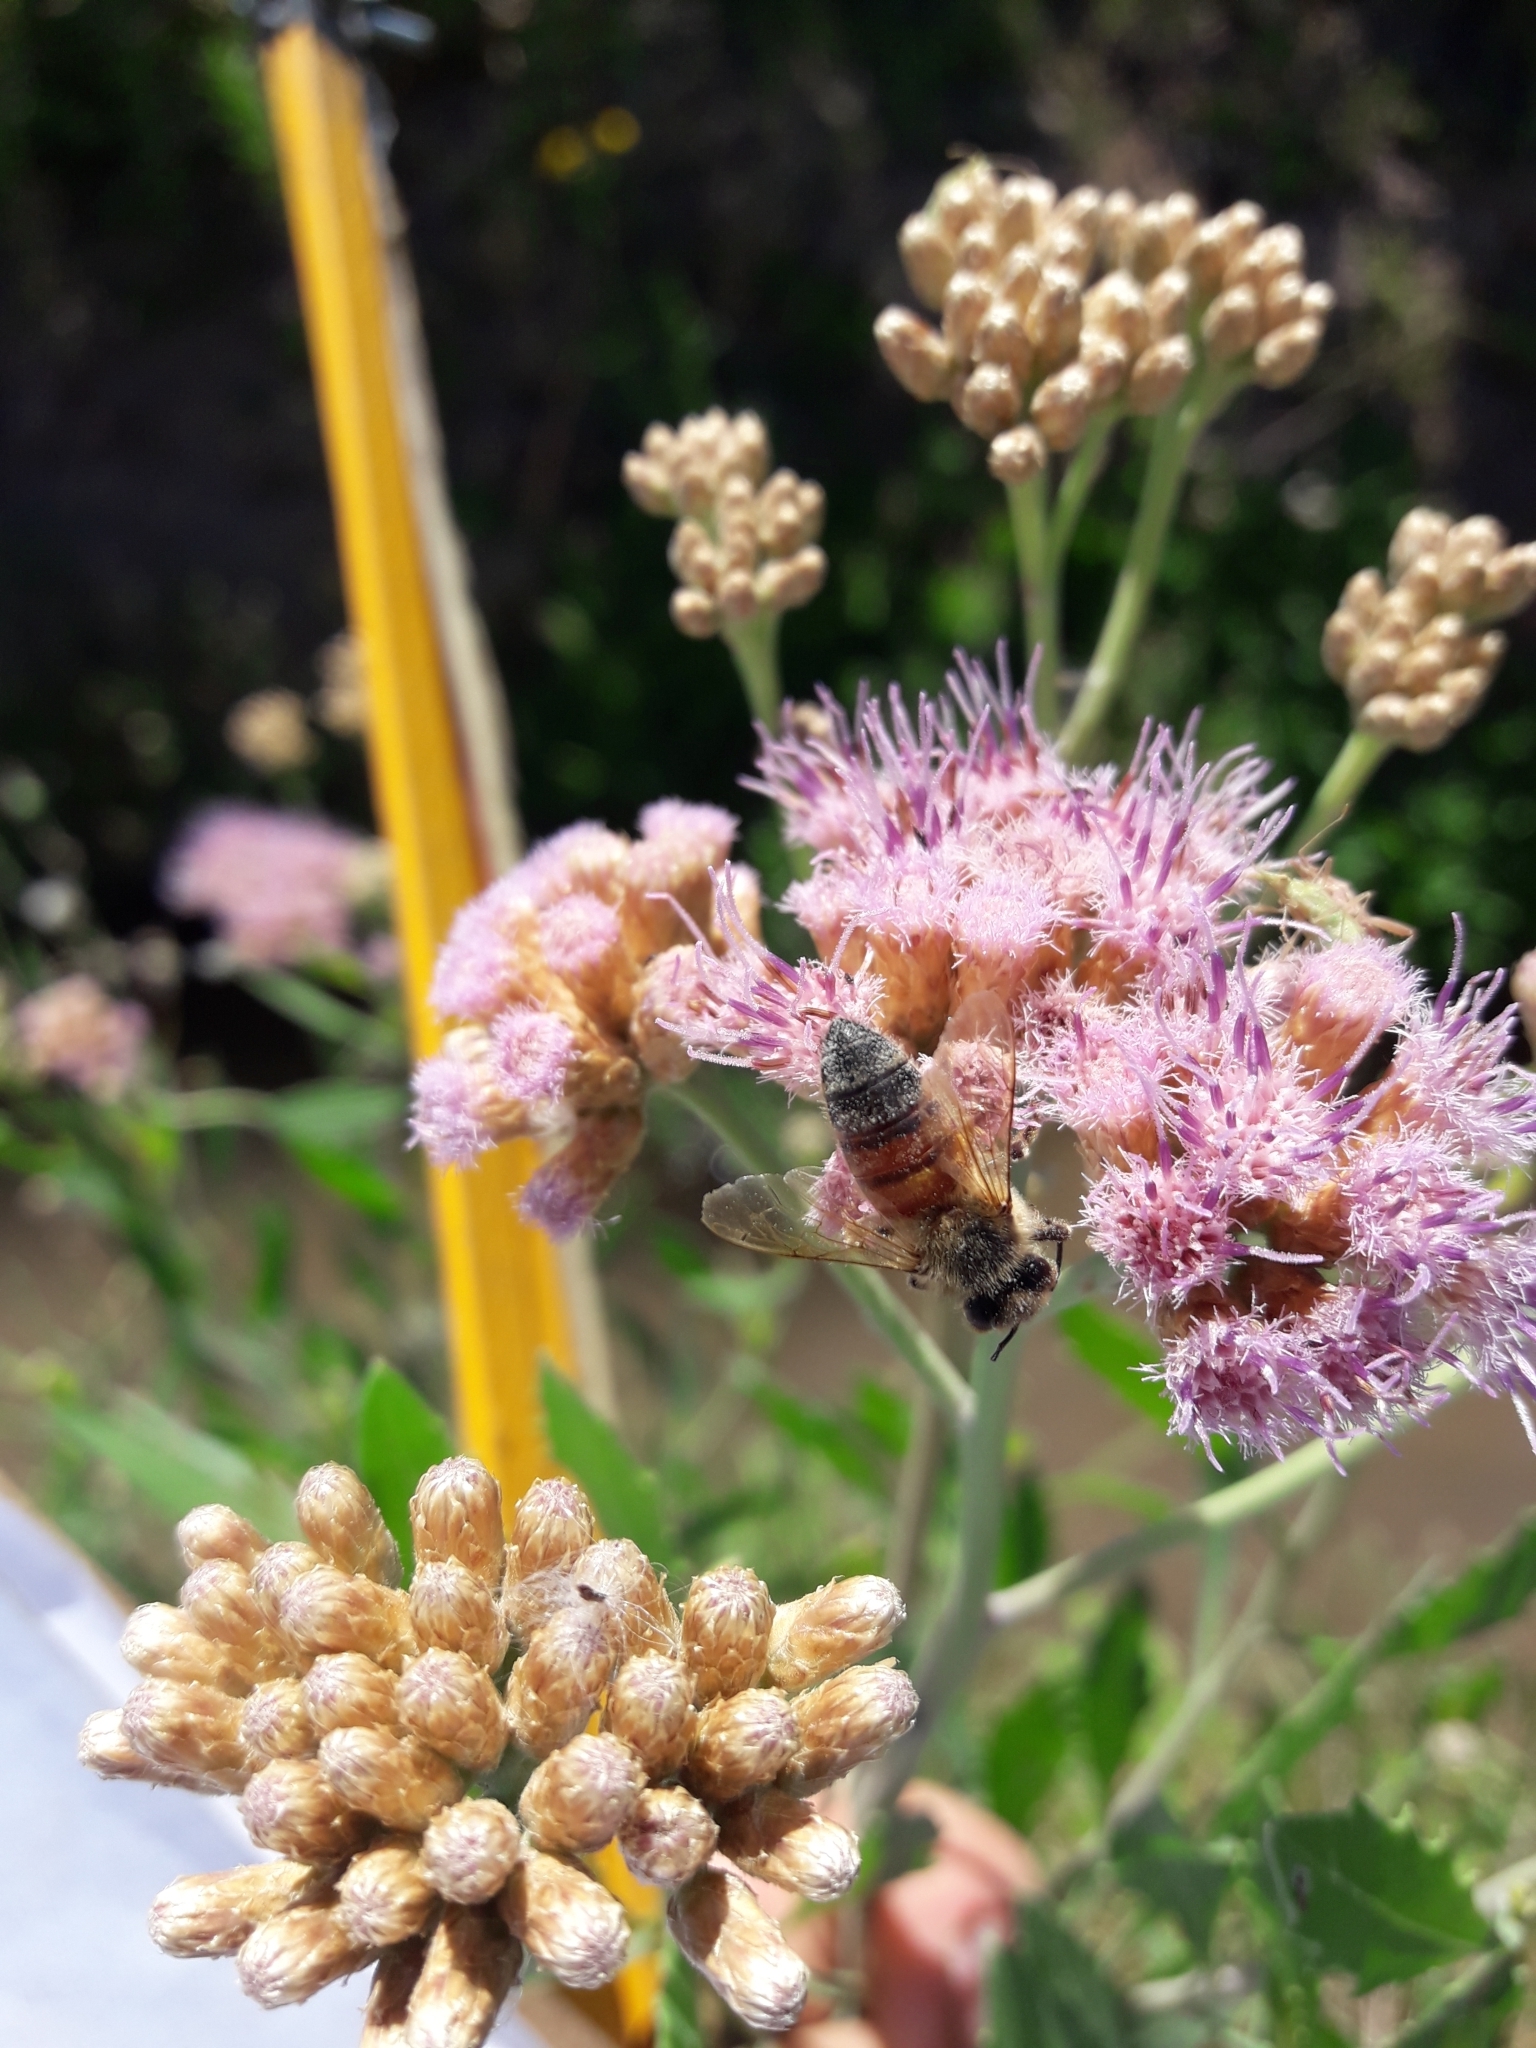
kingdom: Animalia
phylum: Arthropoda
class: Insecta
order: Hymenoptera
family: Apidae
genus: Apis
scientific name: Apis mellifera
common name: Honey bee
